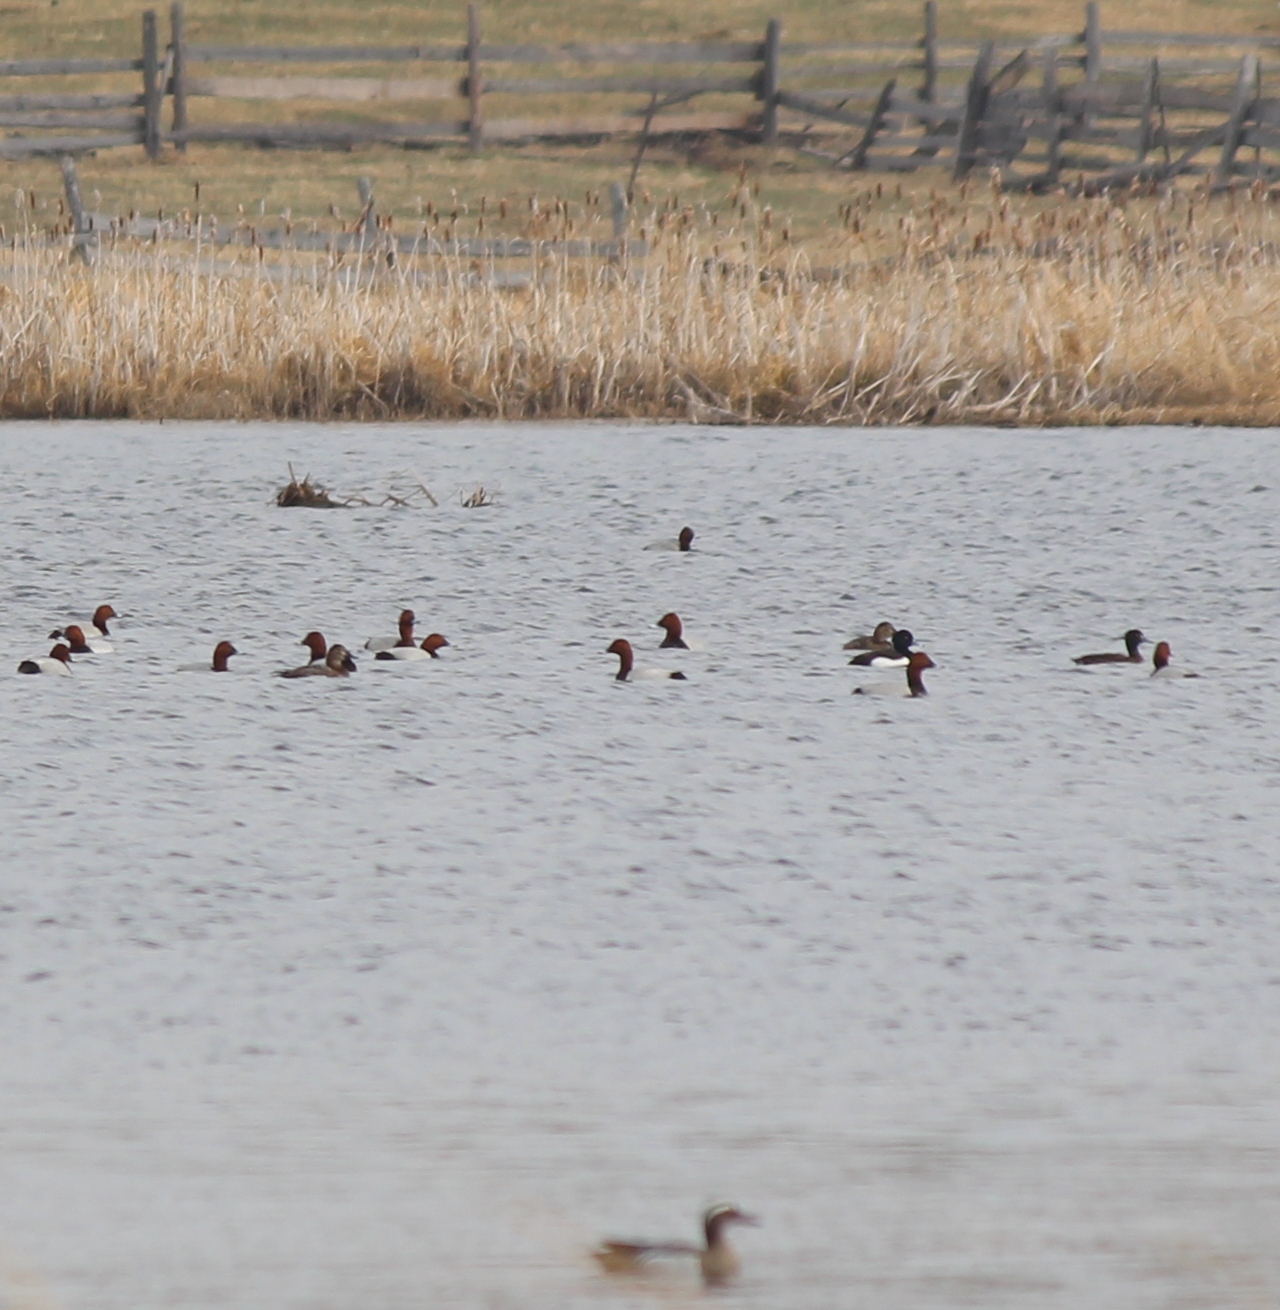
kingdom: Animalia
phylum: Chordata
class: Aves
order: Anseriformes
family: Anatidae
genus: Aythya
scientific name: Aythya ferina
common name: Common pochard
